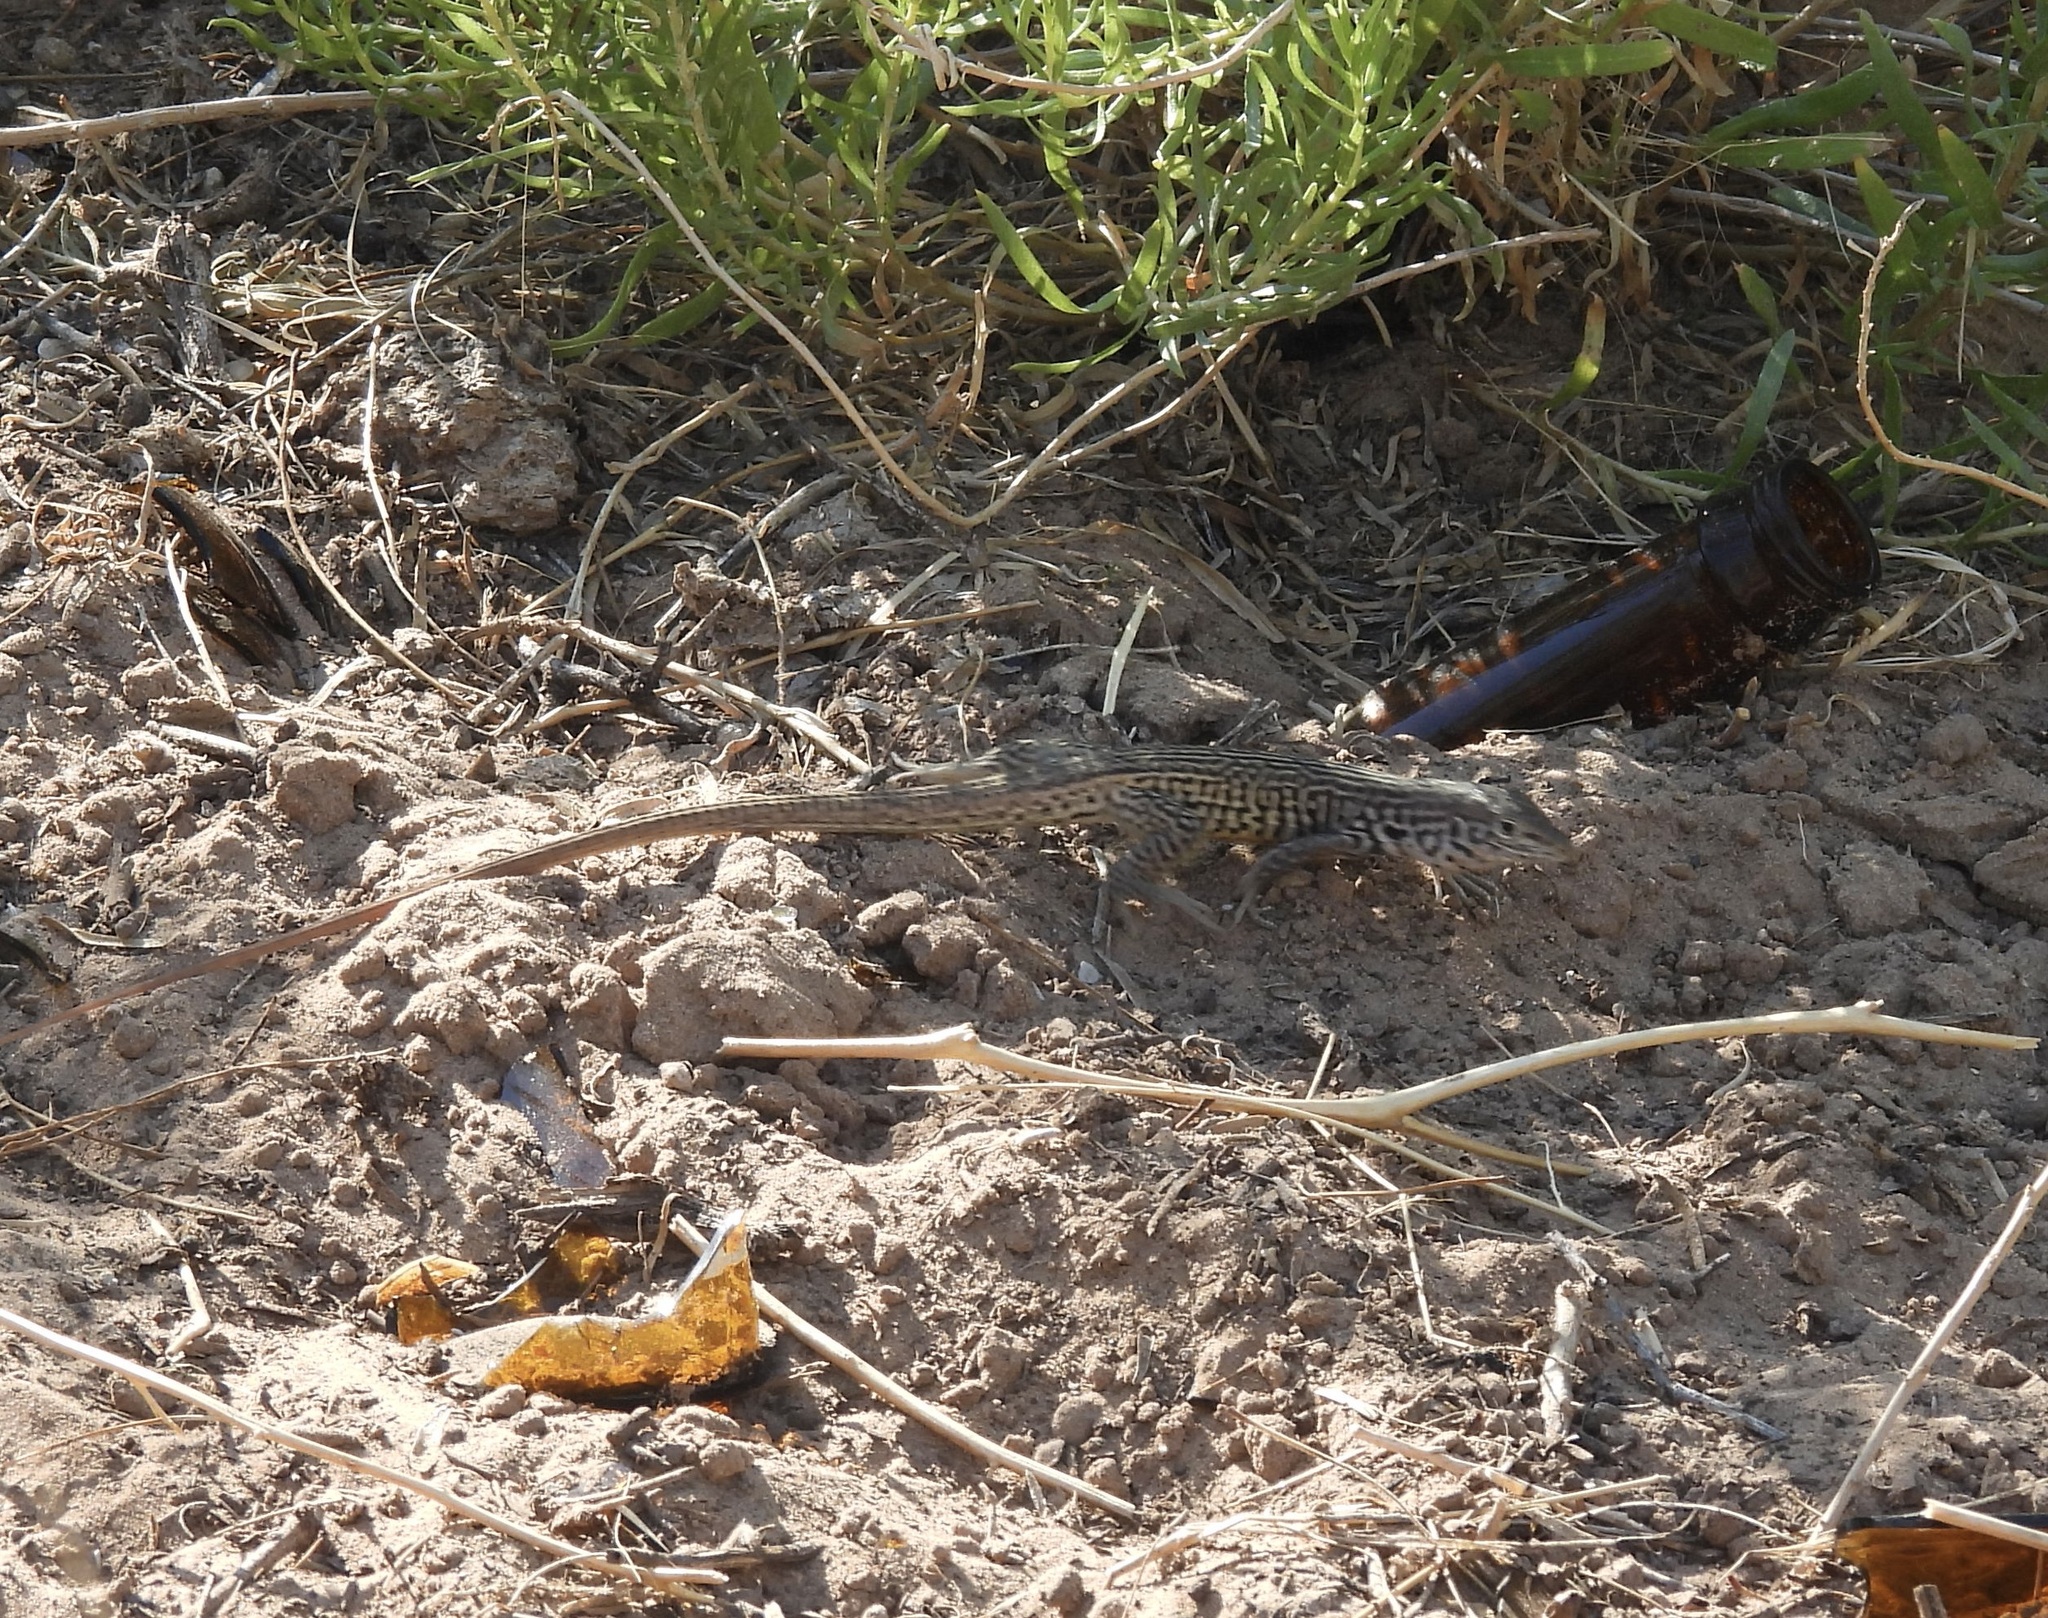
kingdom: Animalia
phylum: Chordata
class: Squamata
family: Teiidae
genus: Aspidoscelis
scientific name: Aspidoscelis marmoratus
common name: Eastern marbled whiptail [reticuloriens]
